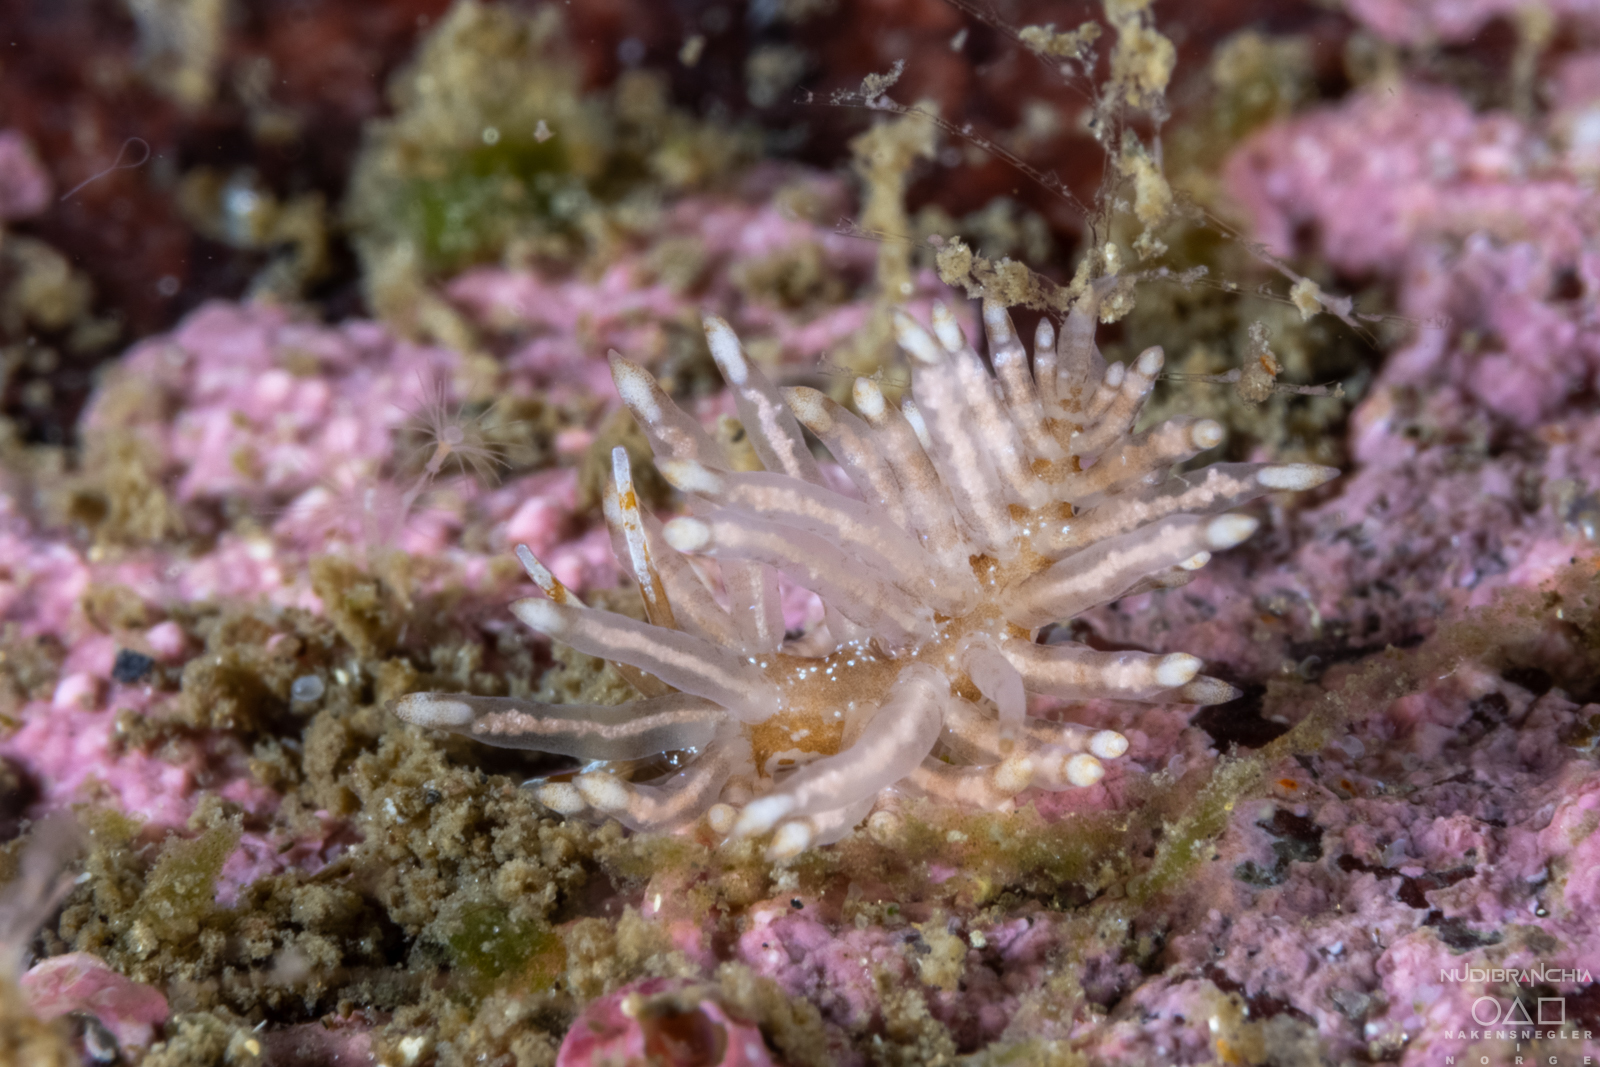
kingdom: Animalia
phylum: Mollusca
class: Gastropoda
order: Nudibranchia
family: Eubranchidae
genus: Eubranchus
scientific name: Eubranchus vittatus
